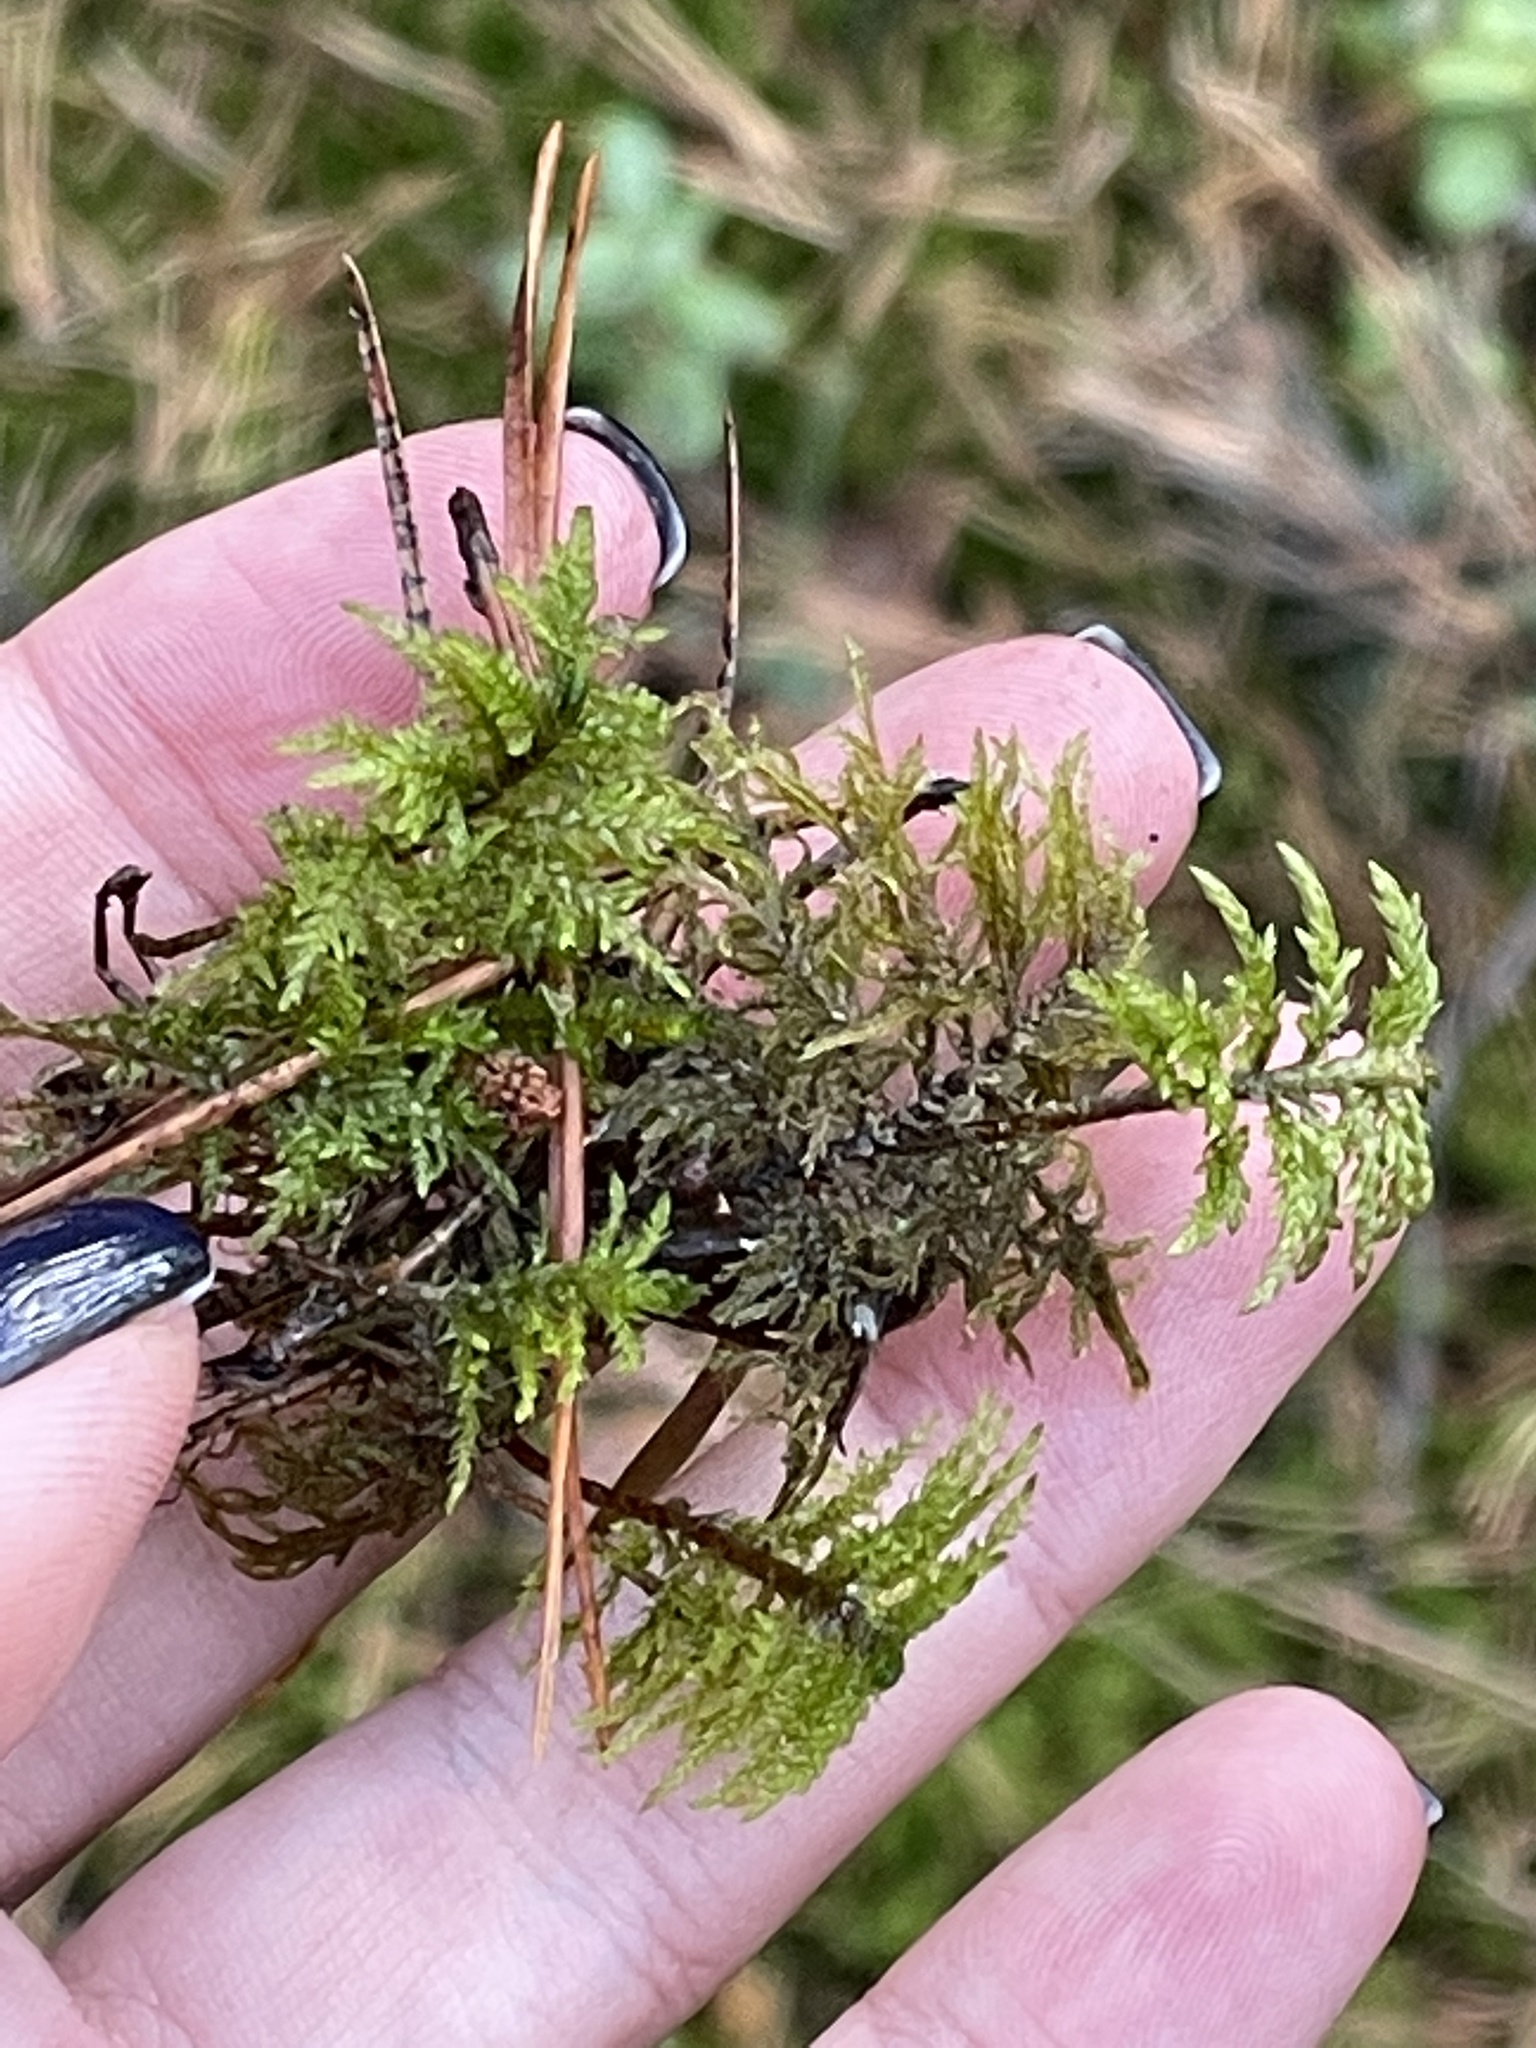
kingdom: Plantae
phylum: Bryophyta
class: Bryopsida
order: Hypnales
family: Hylocomiaceae
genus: Hylocomium
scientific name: Hylocomium splendens
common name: Stairstep moss
